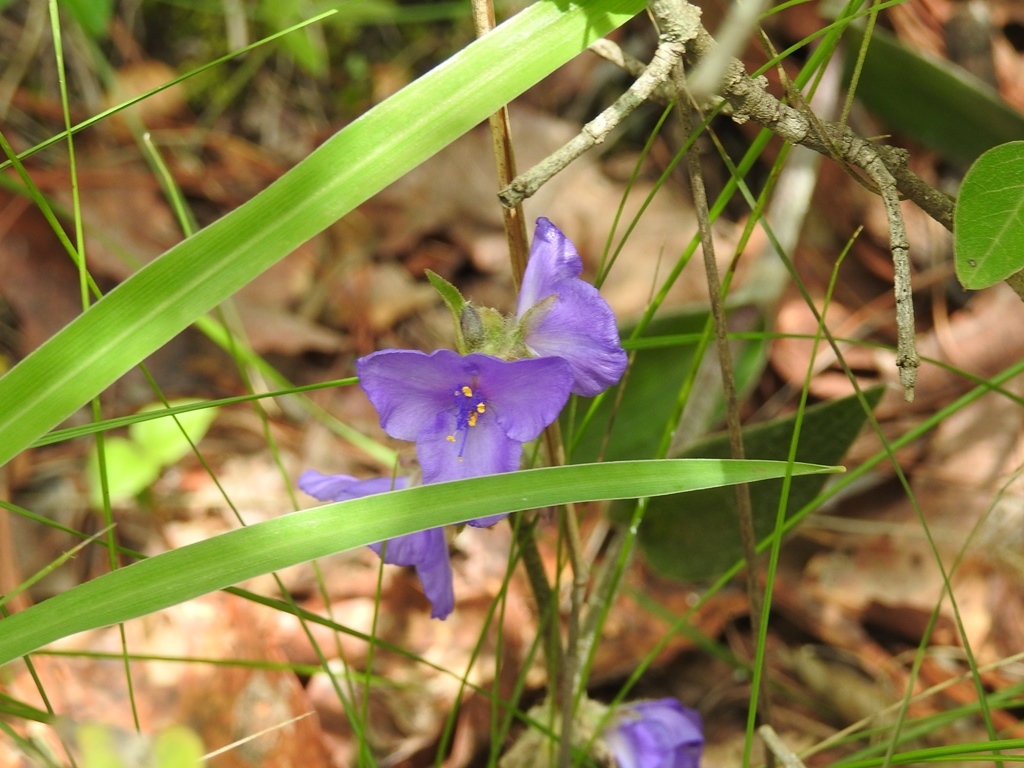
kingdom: Plantae
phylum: Tracheophyta
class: Liliopsida
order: Commelinales
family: Commelinaceae
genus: Tradescantia
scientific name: Tradescantia crassifolia
